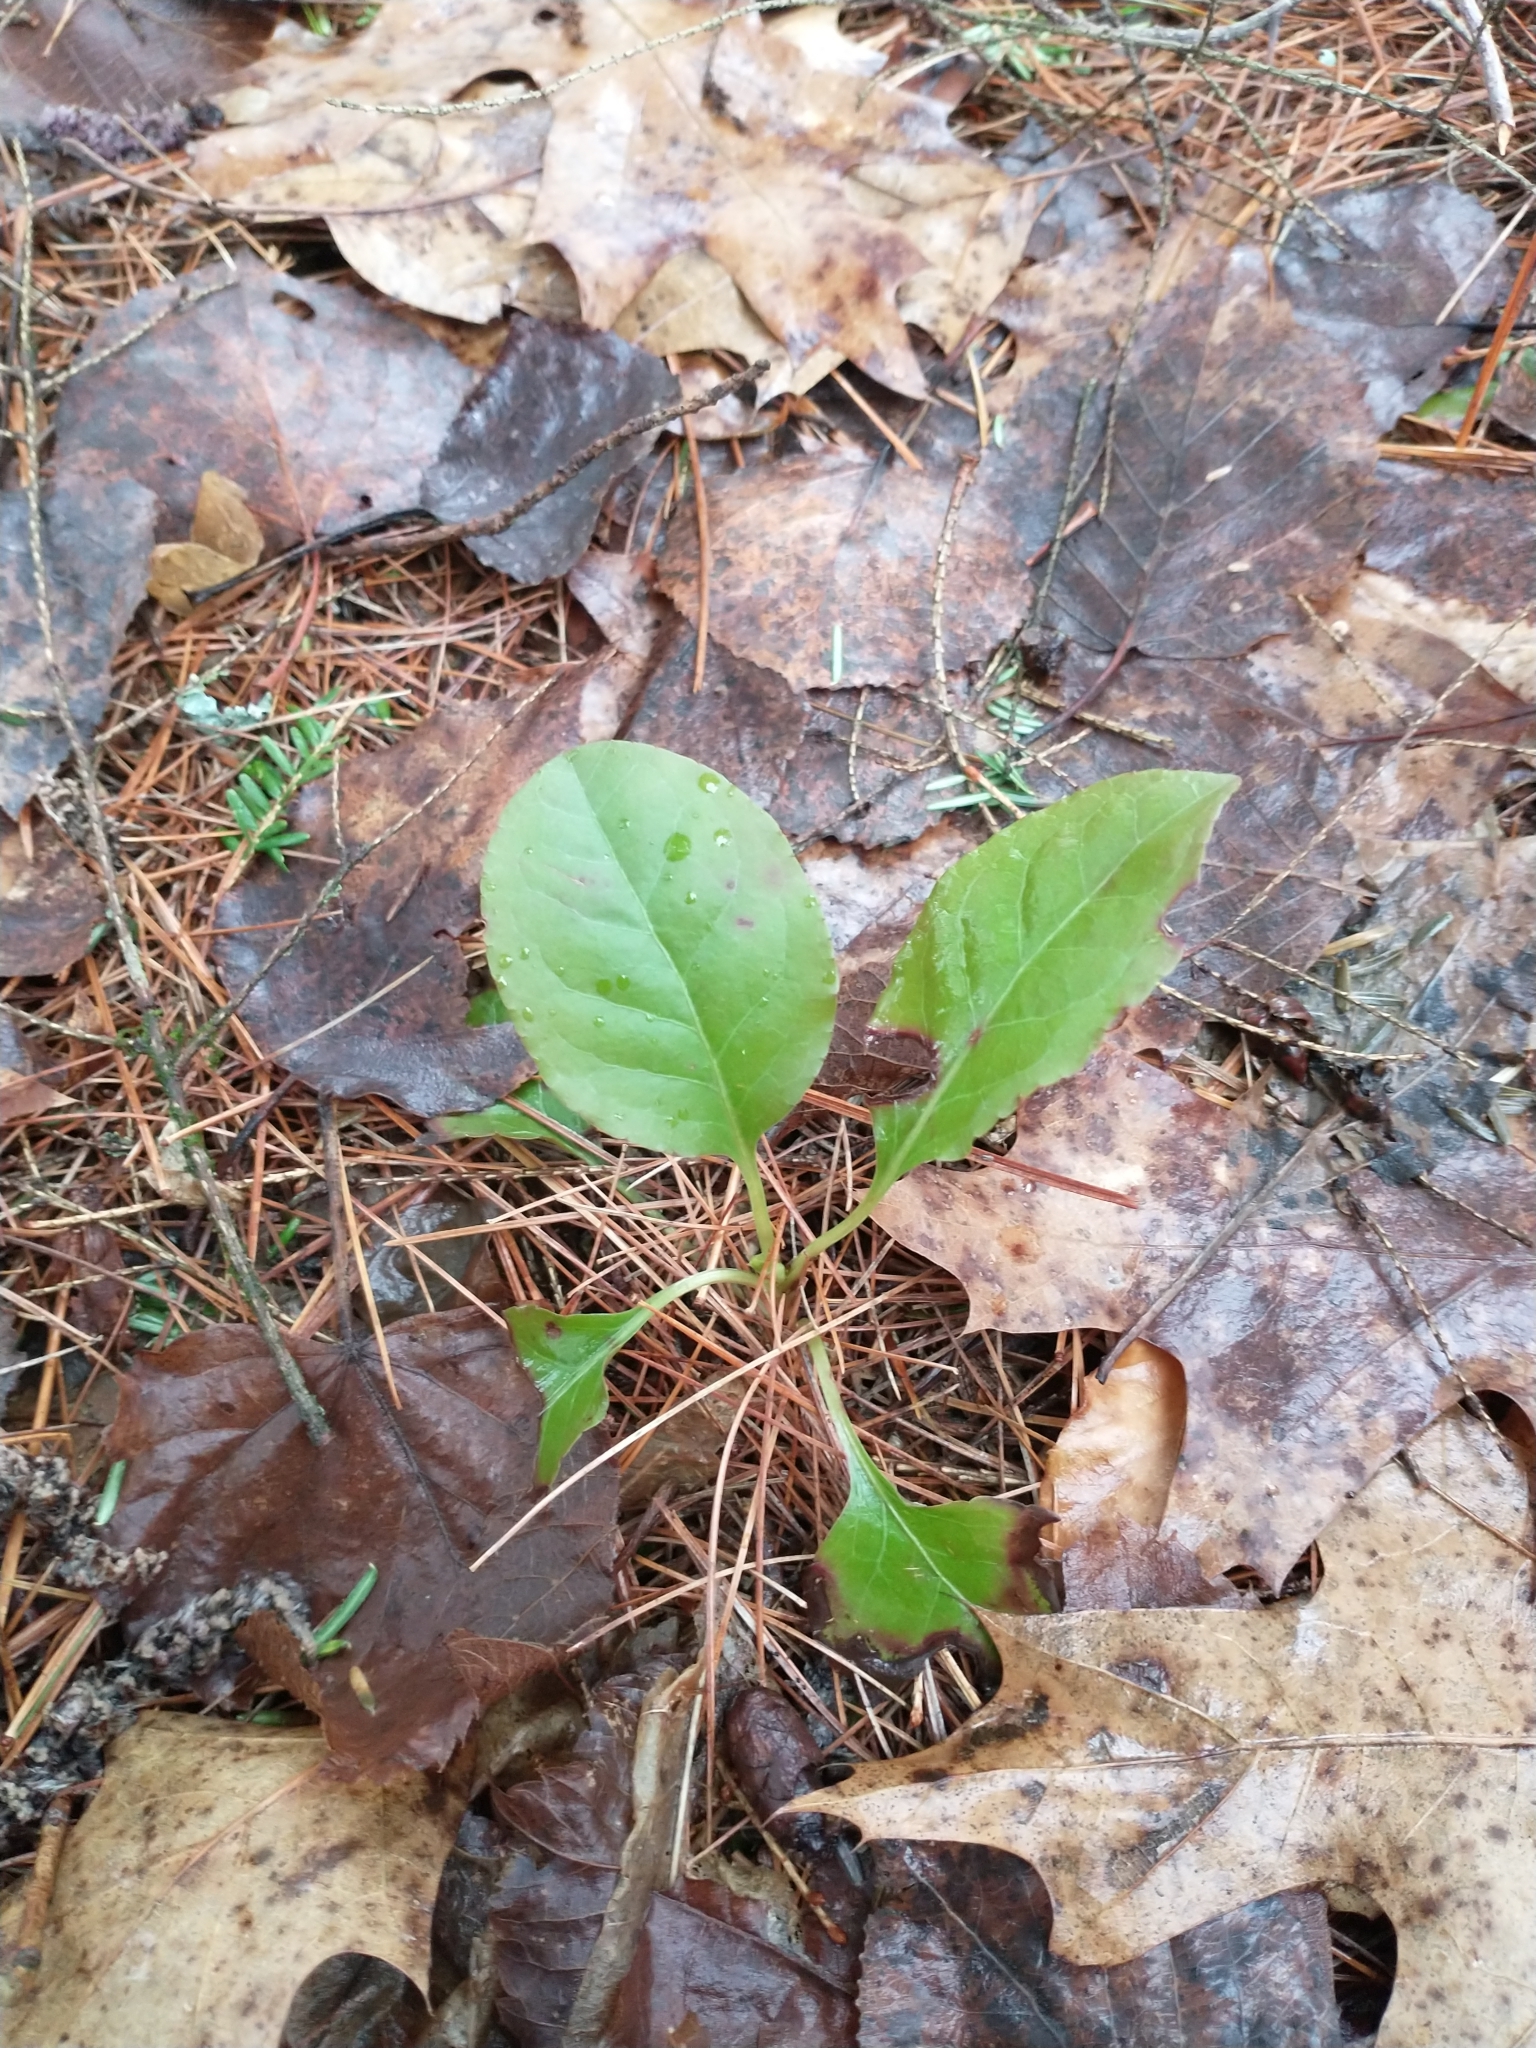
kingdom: Plantae
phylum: Tracheophyta
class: Magnoliopsida
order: Ericales
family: Ericaceae
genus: Pyrola
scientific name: Pyrola elliptica
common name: Shinleaf
